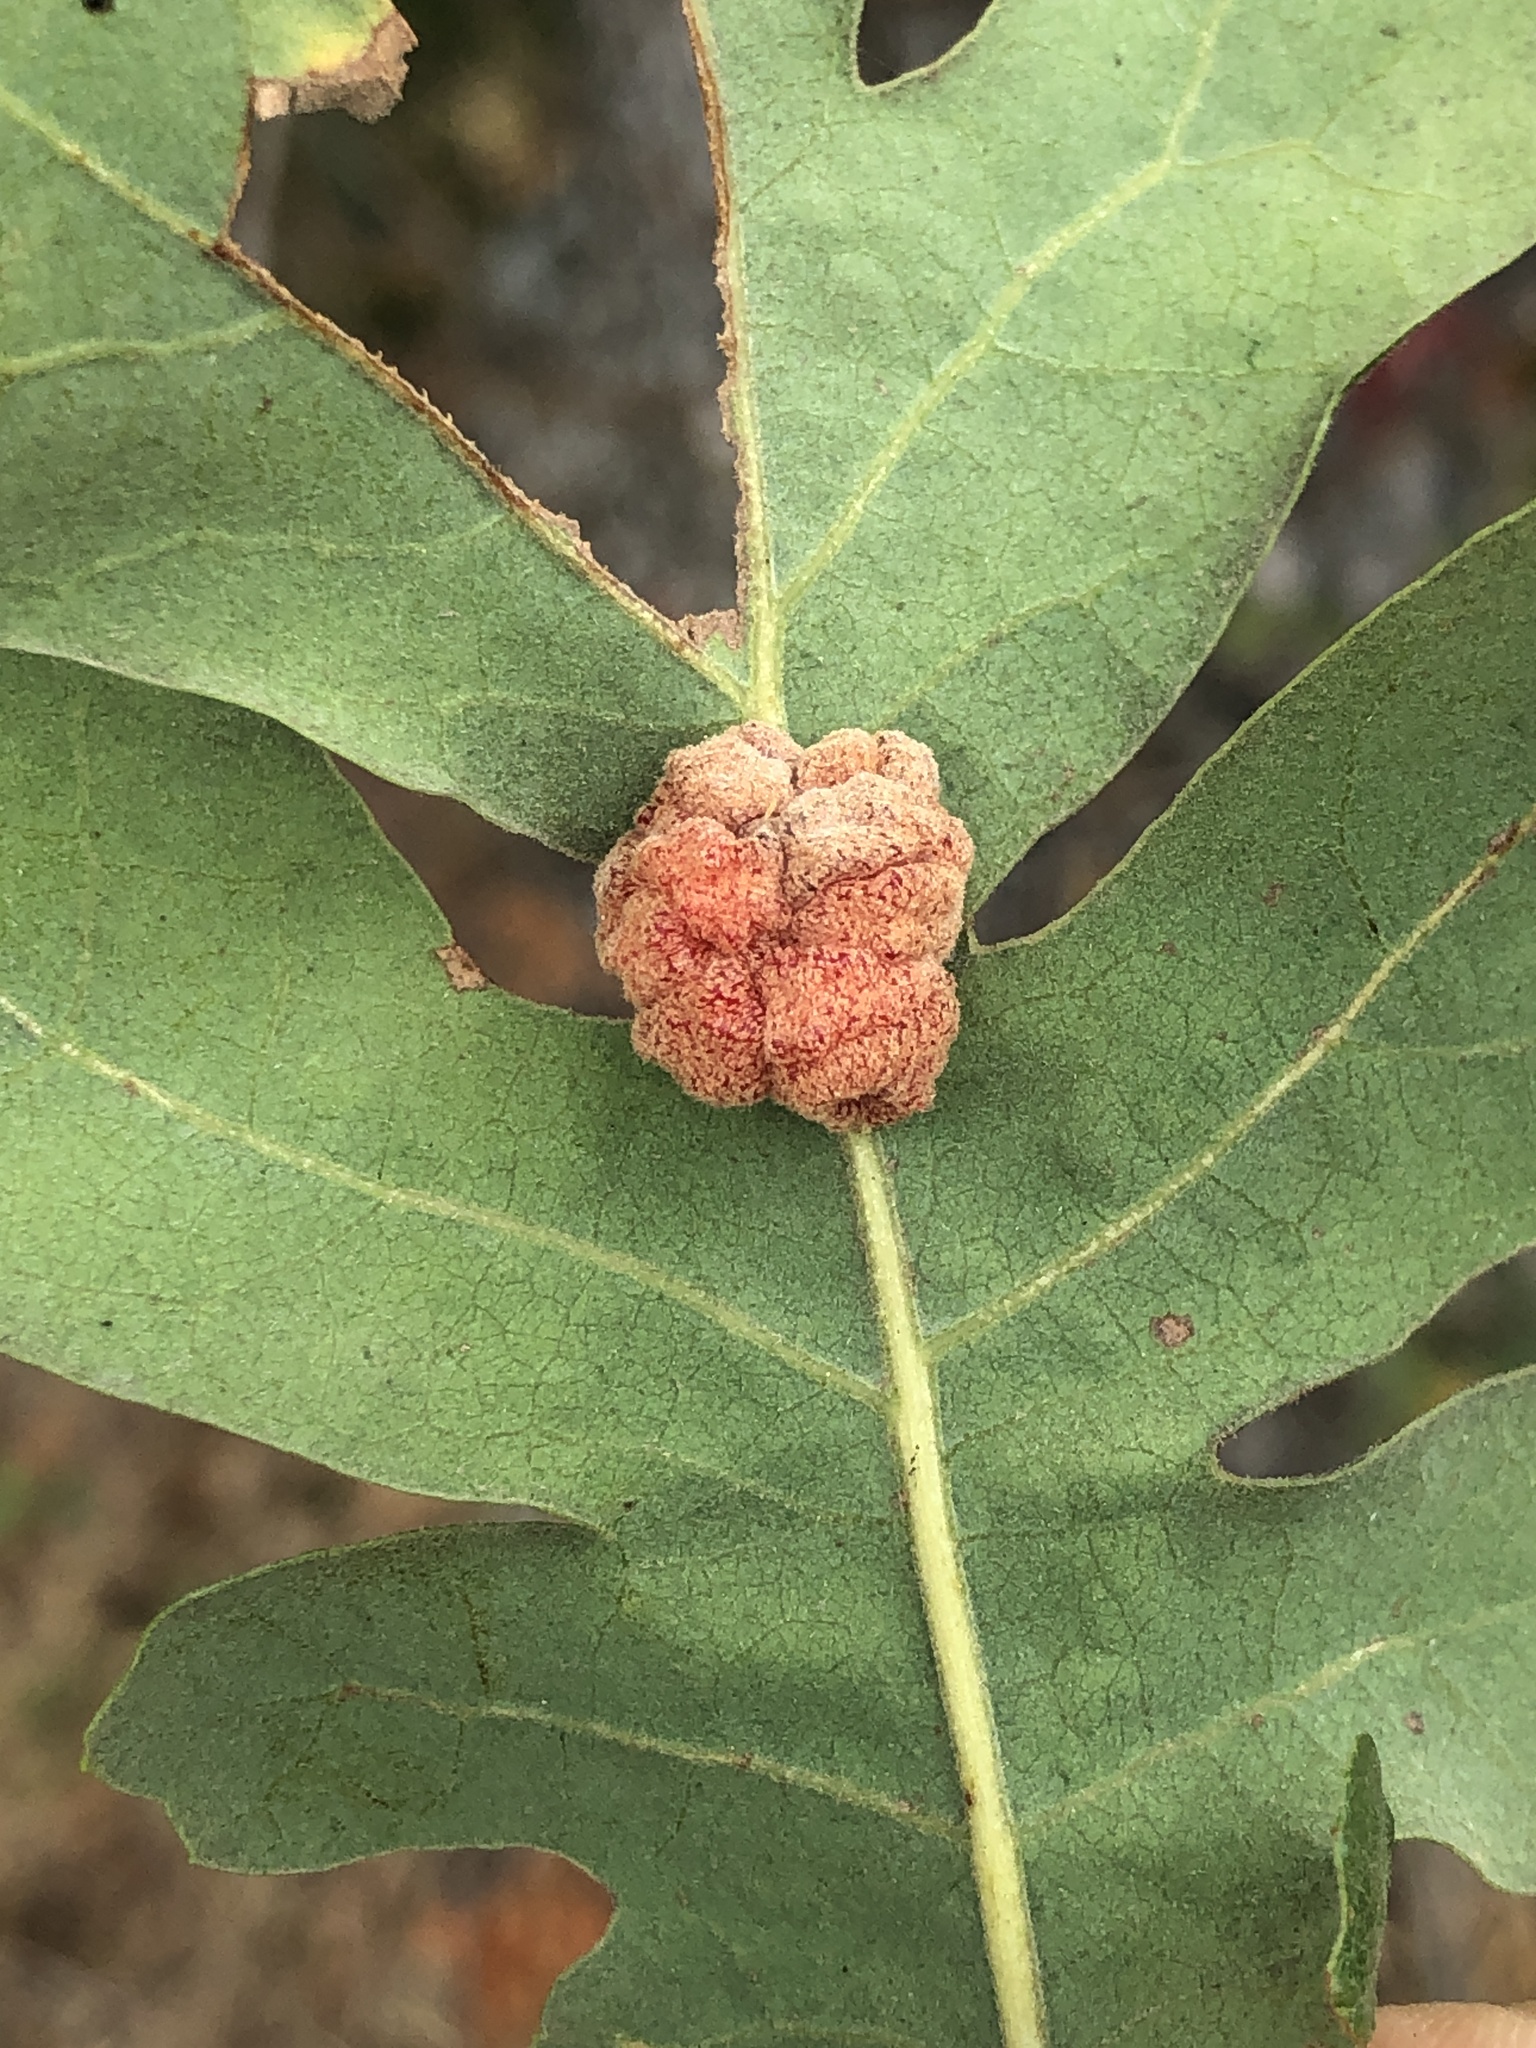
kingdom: Animalia
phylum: Arthropoda
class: Insecta
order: Hymenoptera
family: Cynipidae
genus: Andricus
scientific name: Andricus
